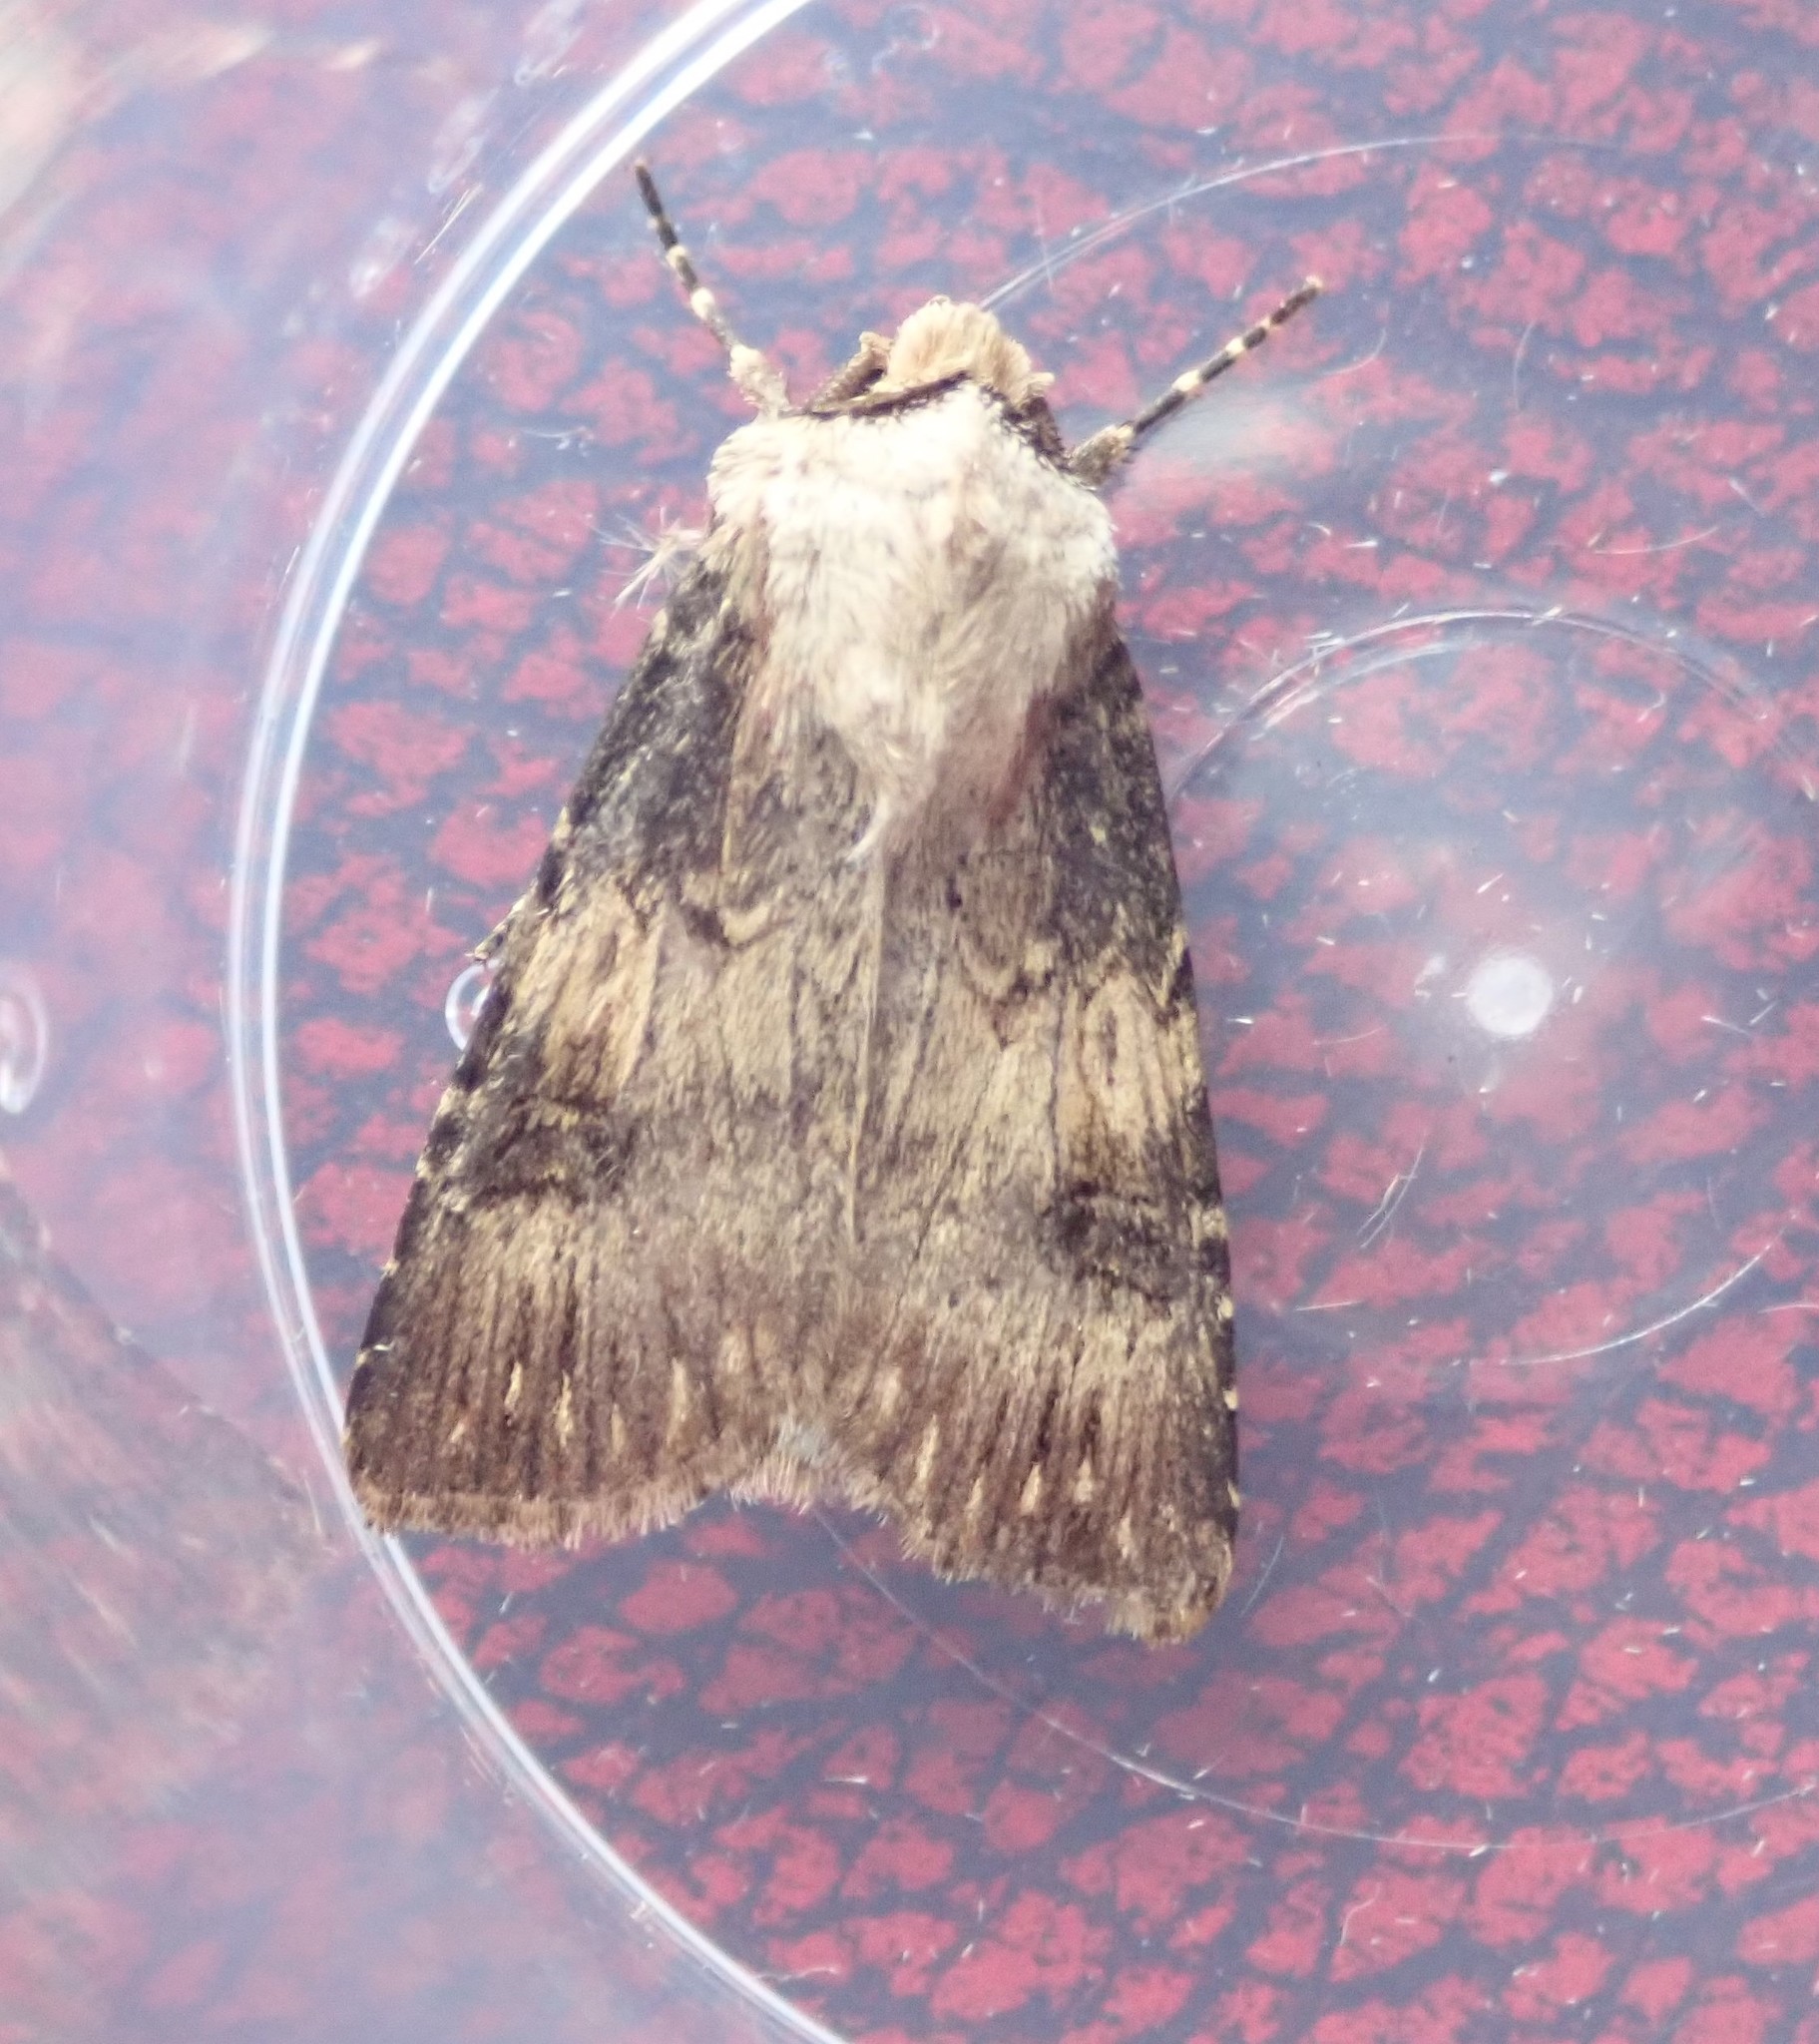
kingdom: Animalia
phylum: Arthropoda
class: Insecta
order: Lepidoptera
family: Noctuidae
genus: Agrotis
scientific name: Agrotis puta
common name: Shuttle-shaped dart
